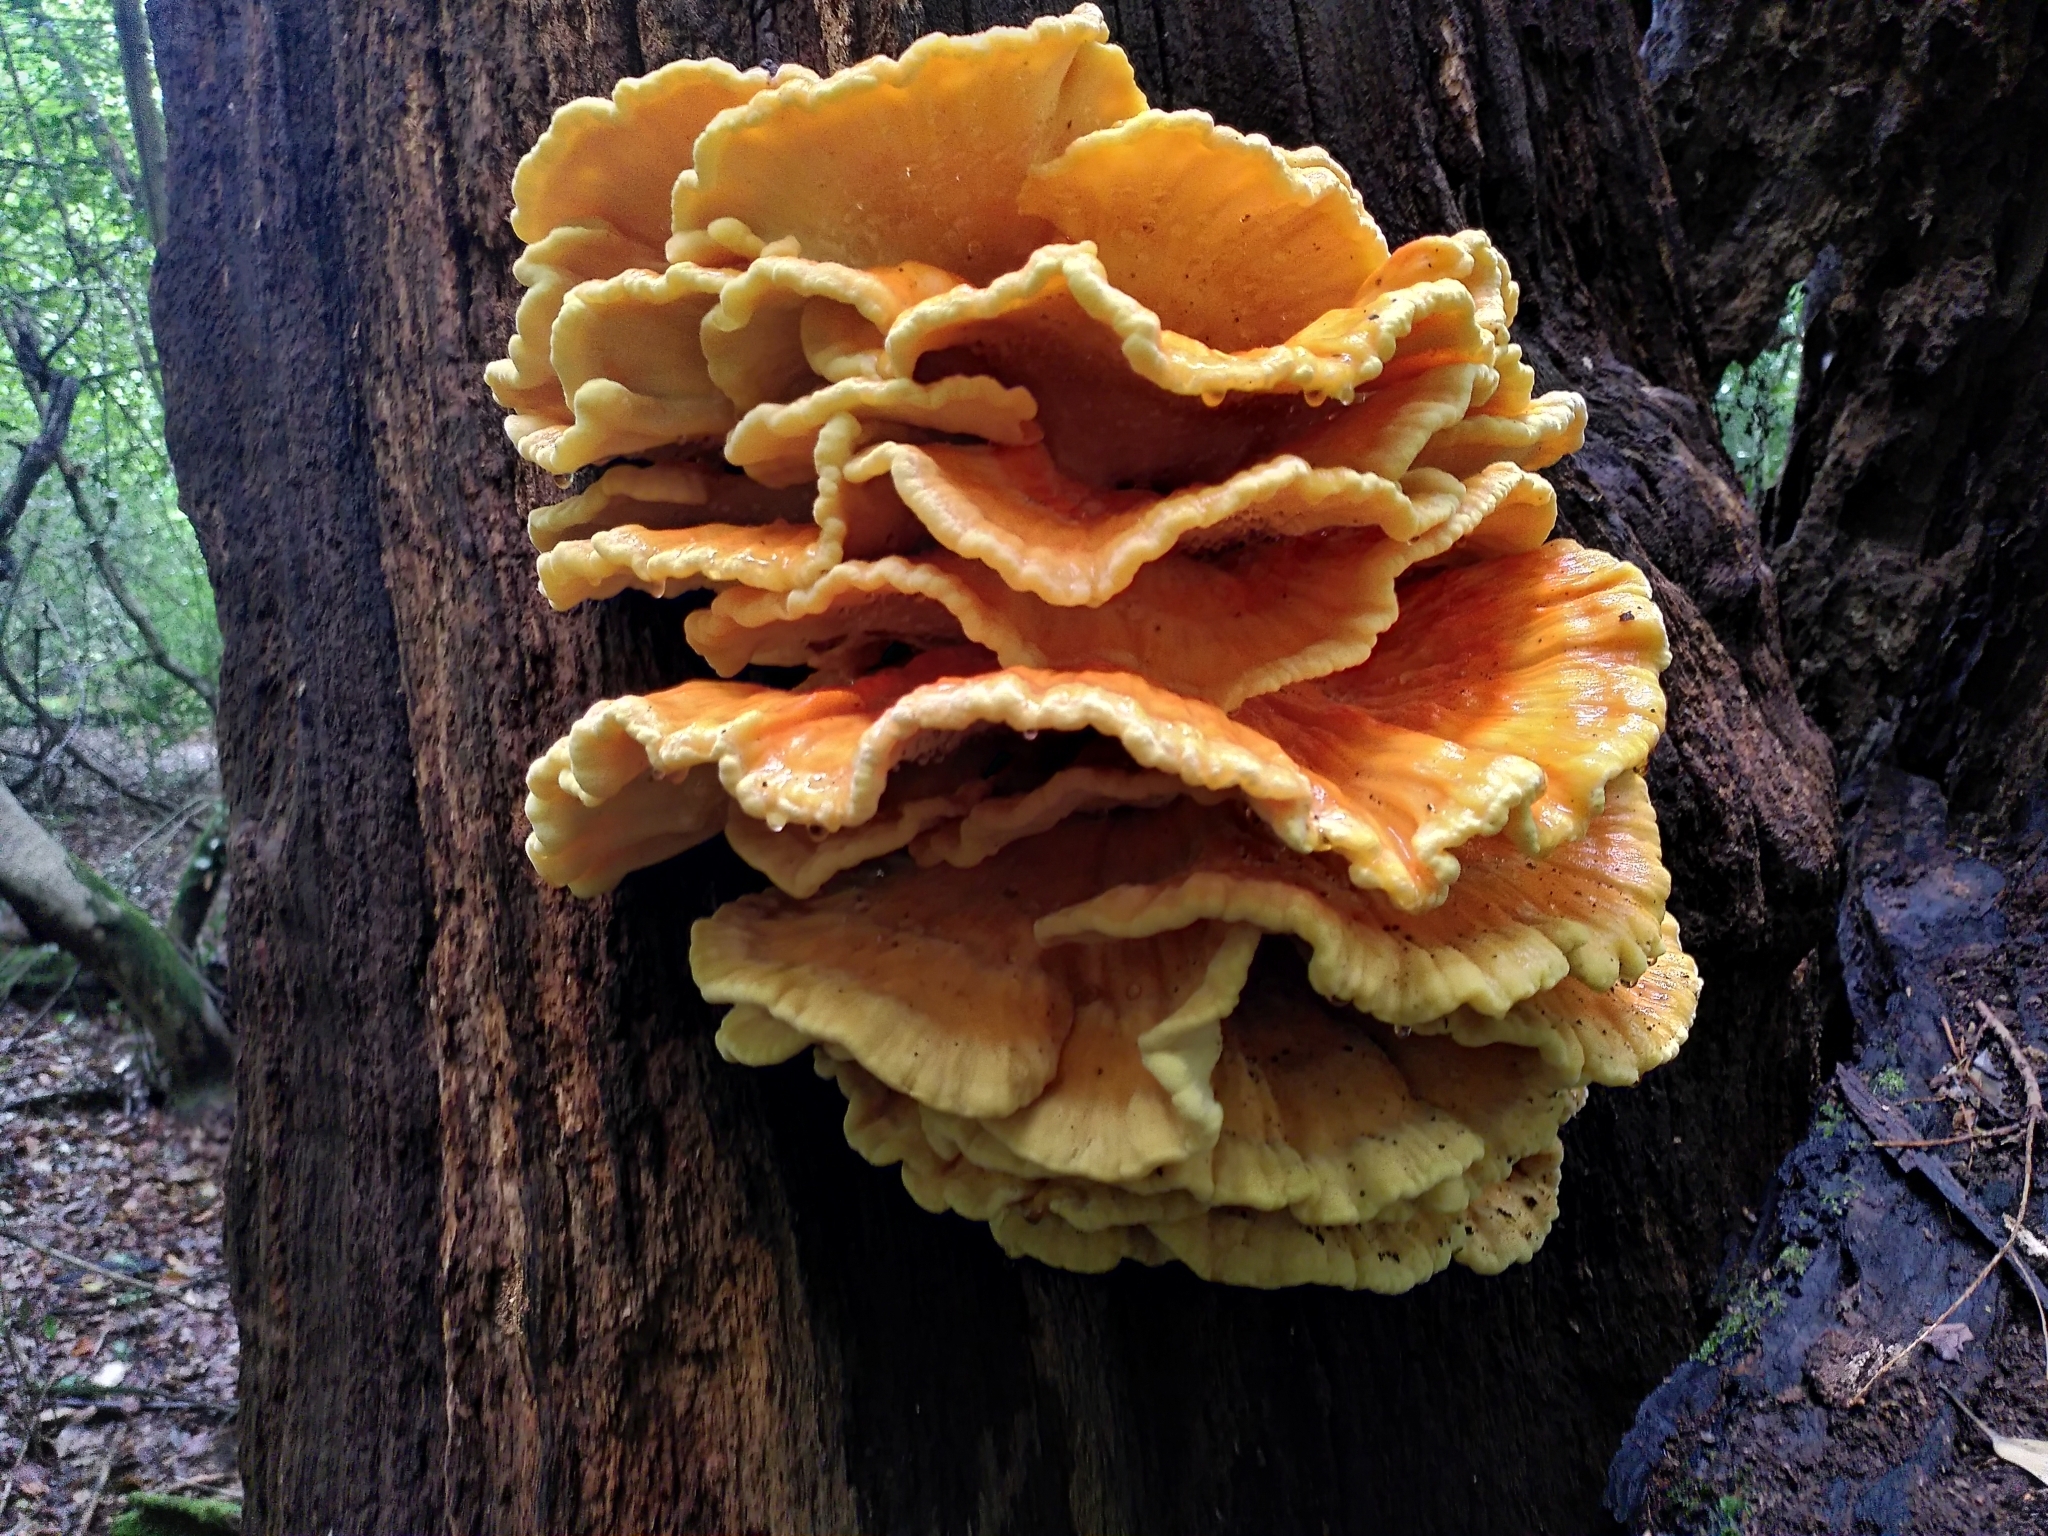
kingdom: Fungi
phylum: Basidiomycota
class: Agaricomycetes
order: Polyporales
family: Laetiporaceae
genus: Laetiporus
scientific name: Laetiporus sulphureus
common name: Chicken of the woods
